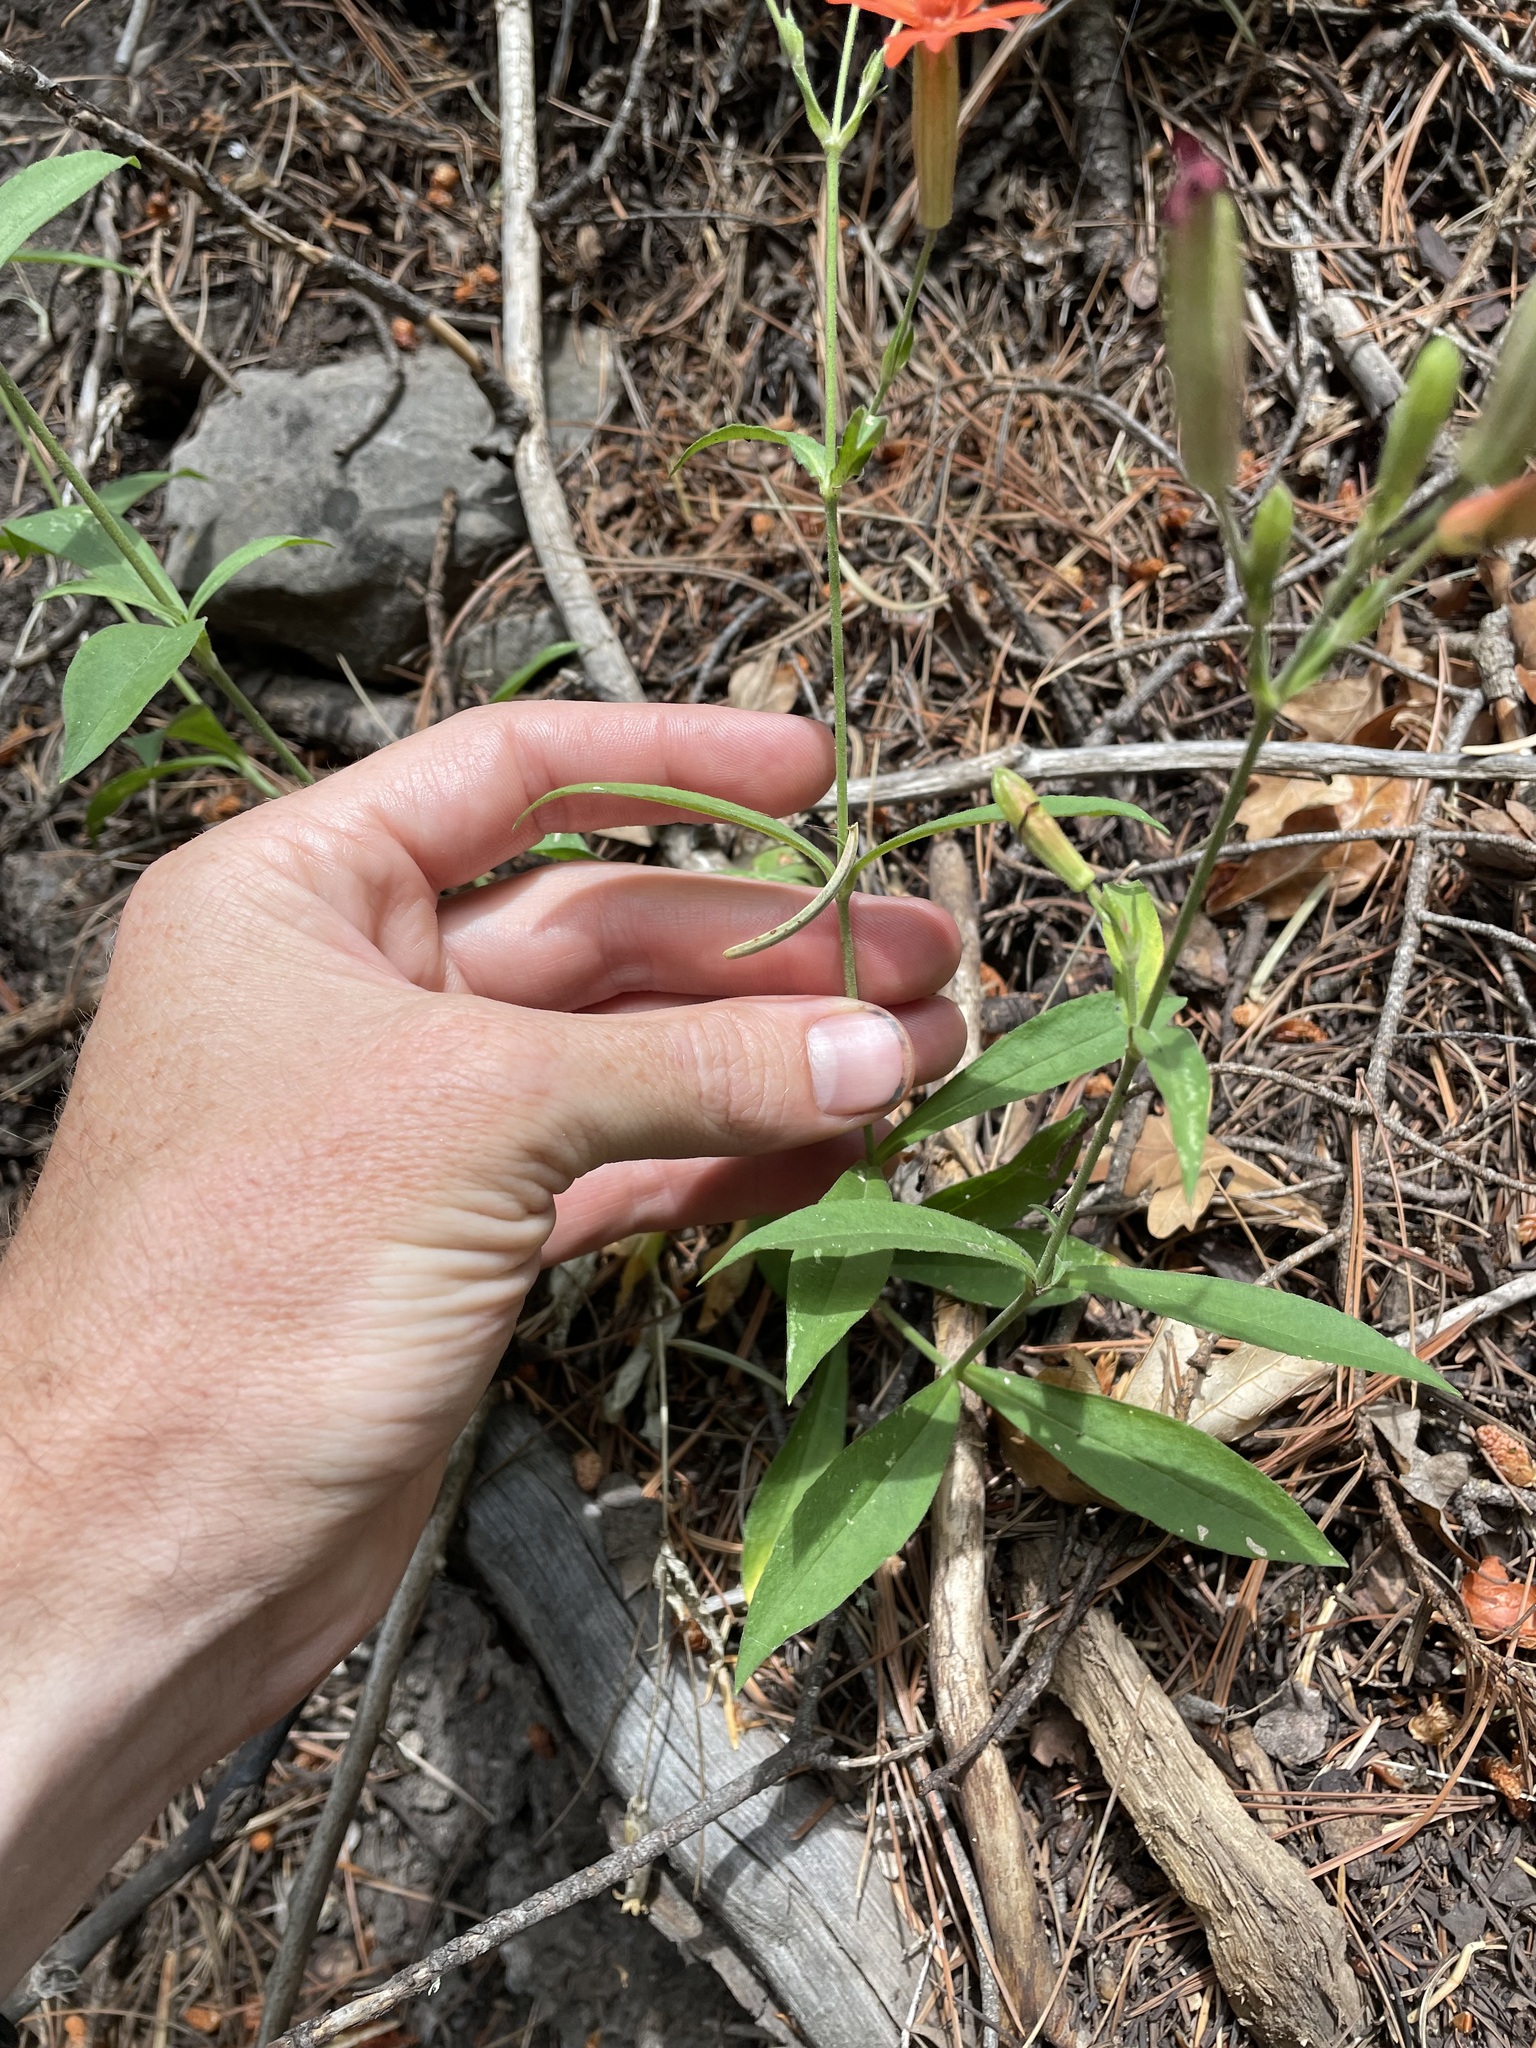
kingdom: Plantae
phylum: Tracheophyta
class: Magnoliopsida
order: Caryophyllales
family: Caryophyllaceae
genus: Silene
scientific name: Silene laciniata
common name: Indian-pink
